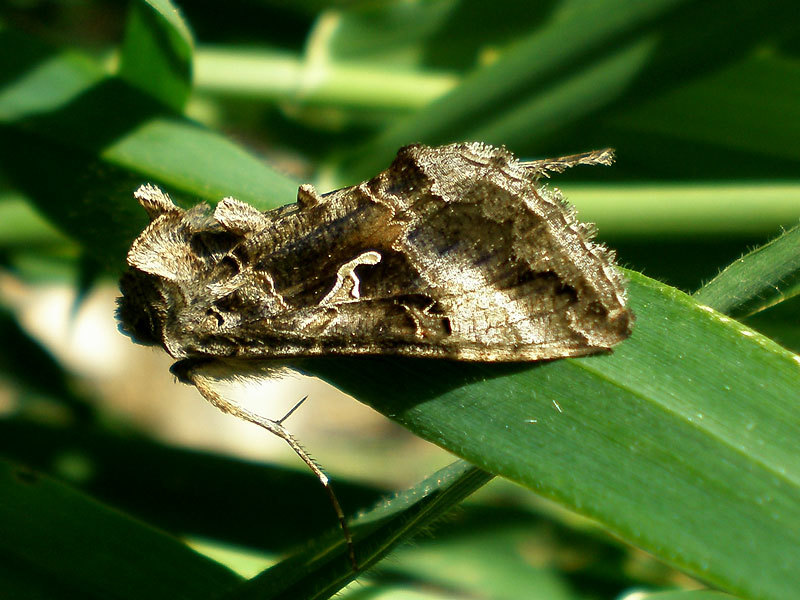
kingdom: Animalia
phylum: Arthropoda
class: Insecta
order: Lepidoptera
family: Noctuidae
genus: Autographa
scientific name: Autographa gamma
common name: Silver y
